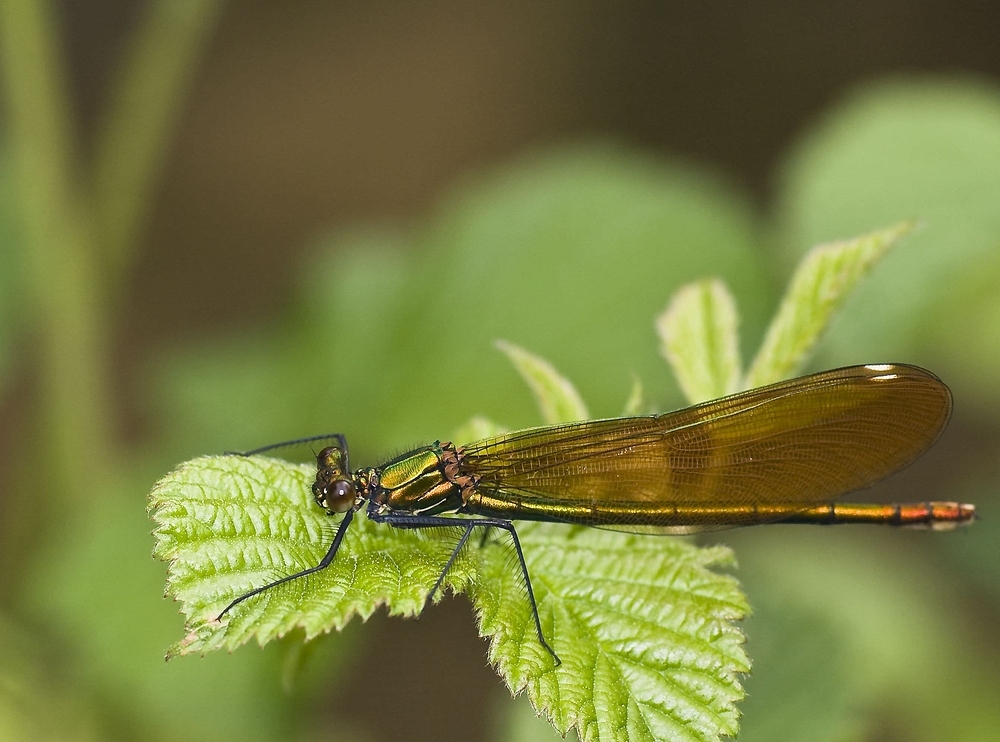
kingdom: Animalia
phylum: Arthropoda
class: Insecta
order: Odonata
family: Calopterygidae
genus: Calopteryx
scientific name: Calopteryx virgo
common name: Beautiful demoiselle
